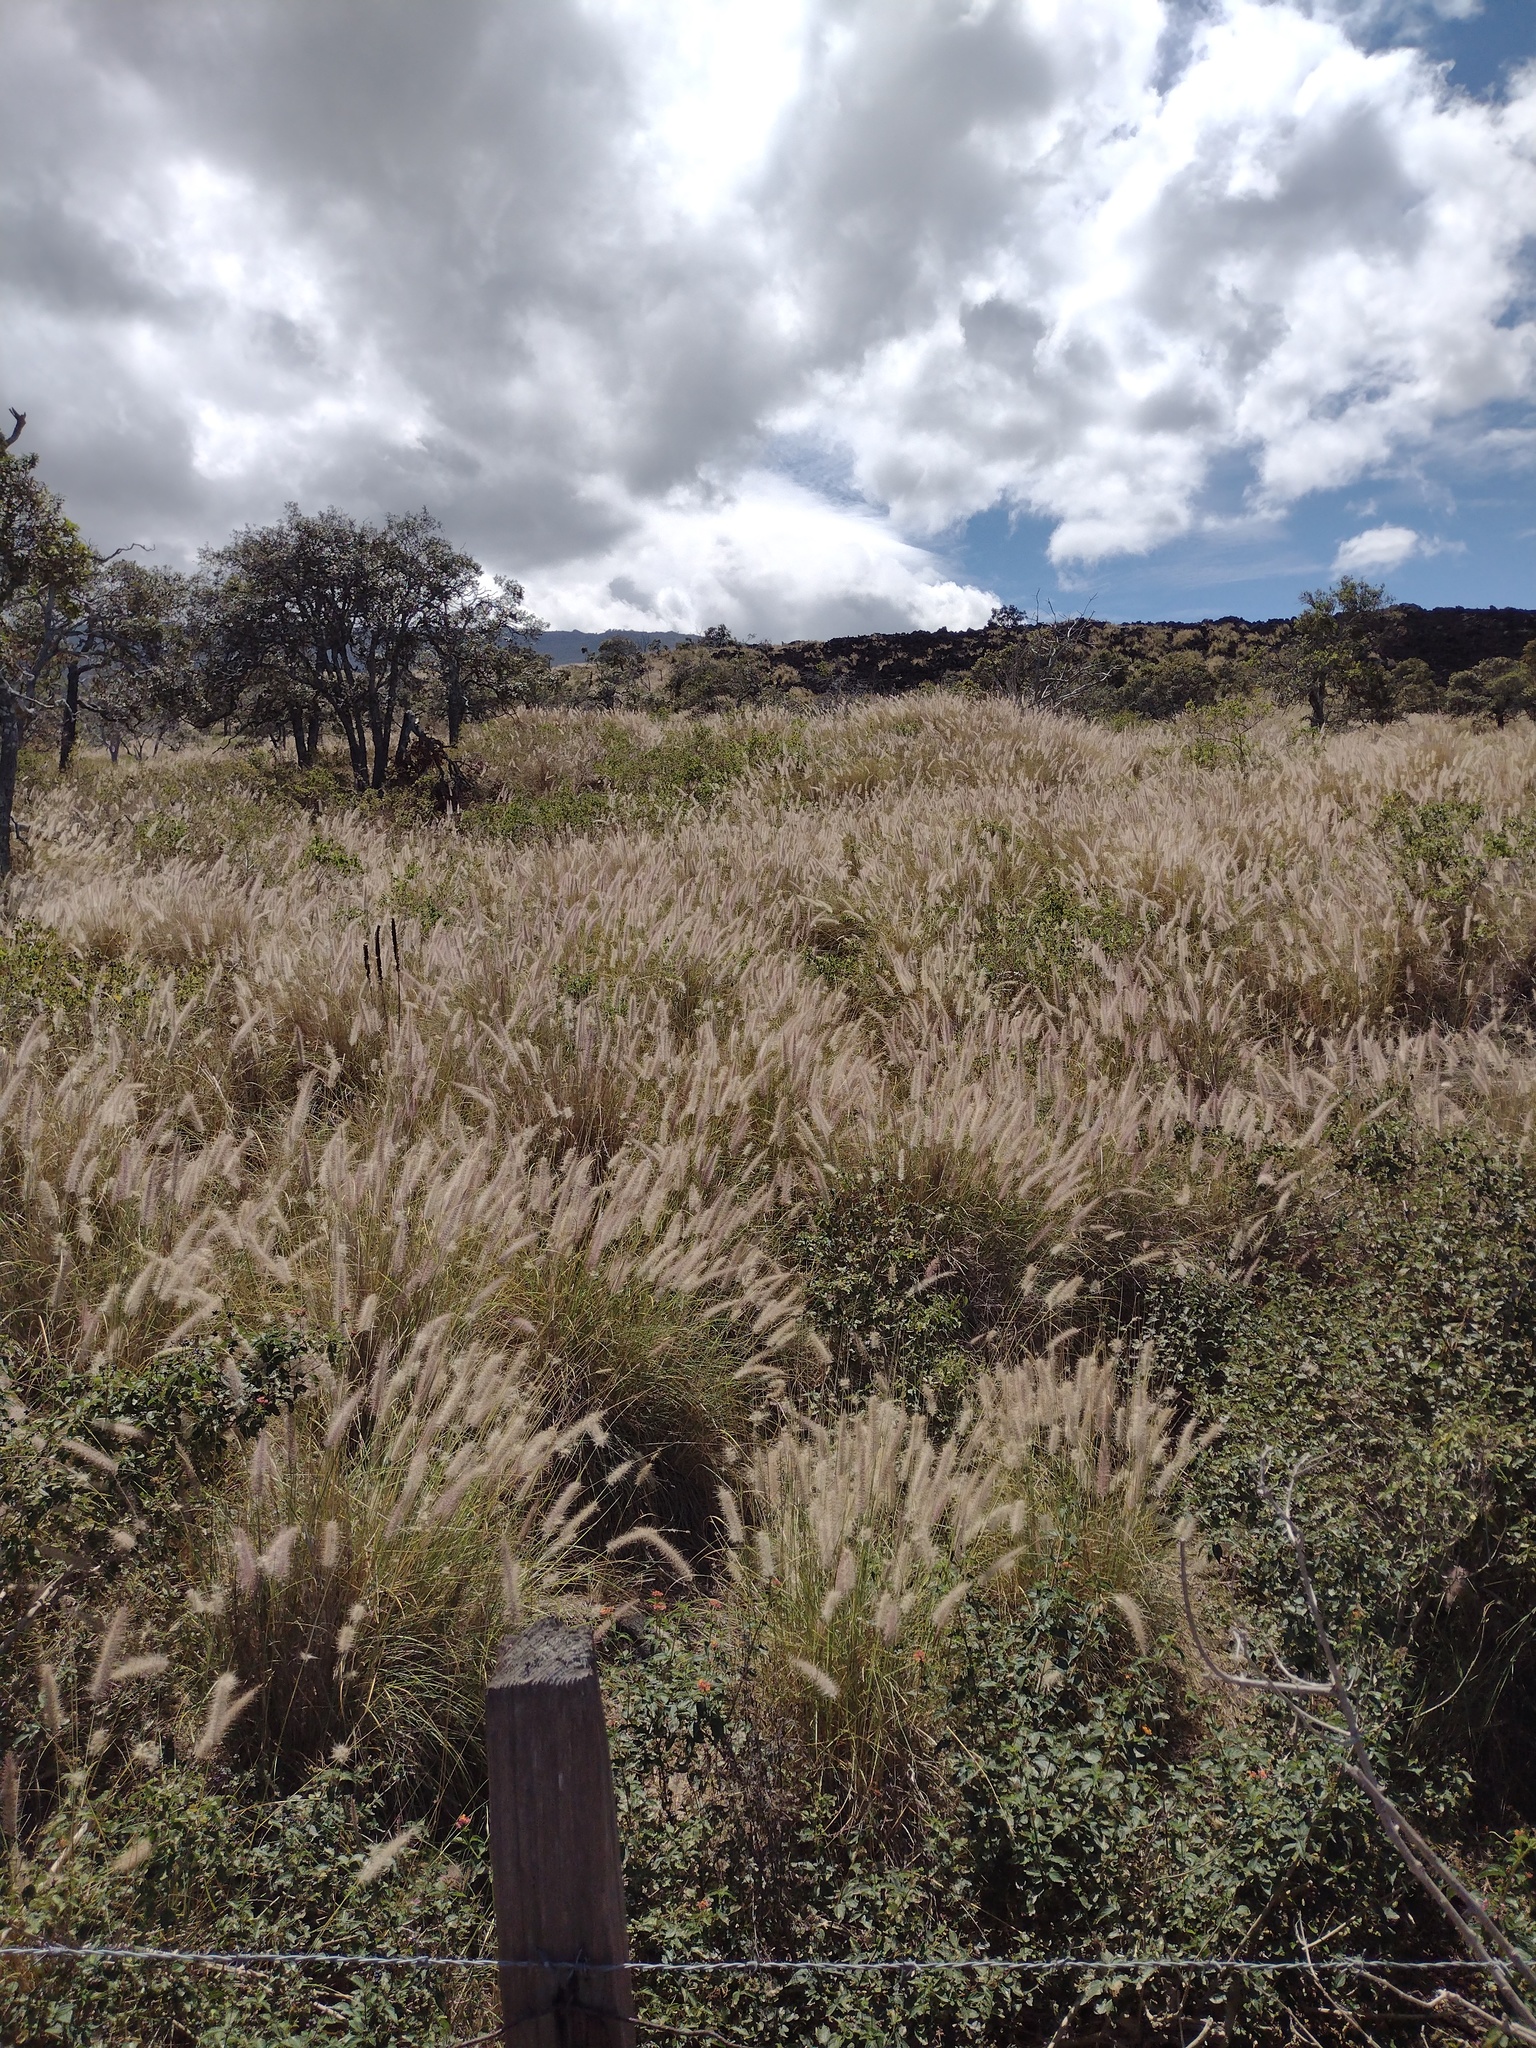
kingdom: Plantae
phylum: Tracheophyta
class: Liliopsida
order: Poales
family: Poaceae
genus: Cenchrus
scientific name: Cenchrus setaceus
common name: Crimson fountaingrass
